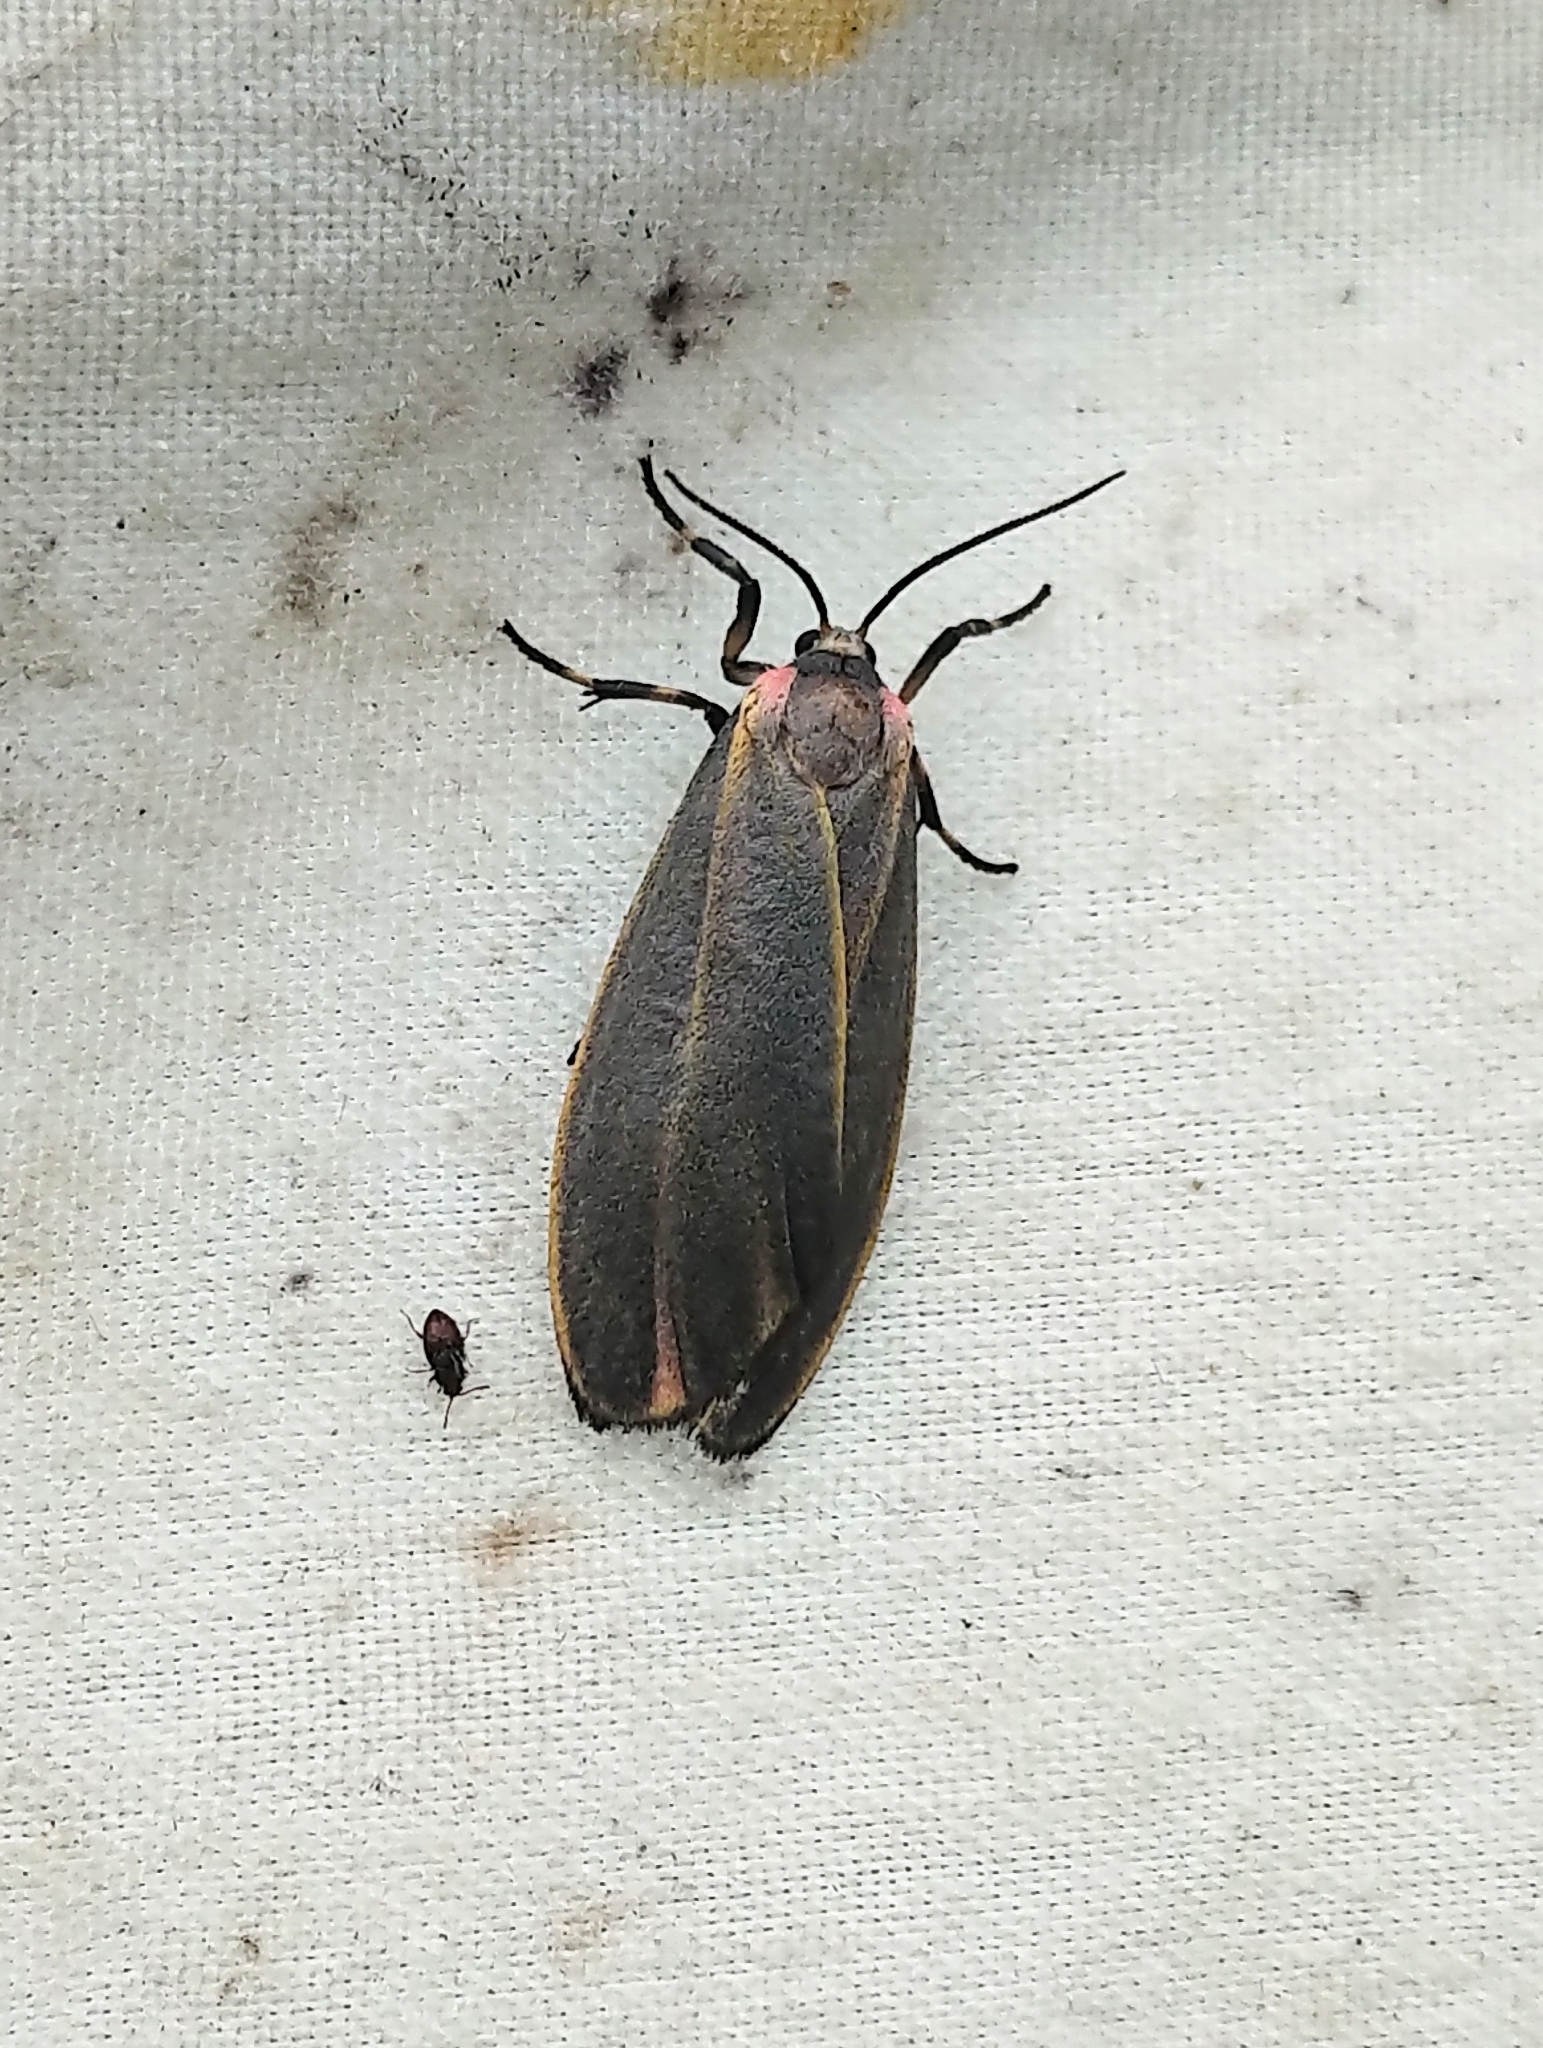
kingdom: Animalia
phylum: Arthropoda
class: Insecta
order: Lepidoptera
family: Erebidae
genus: Hypoprepia
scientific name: Hypoprepia fucosa
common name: Painted lichen moth
